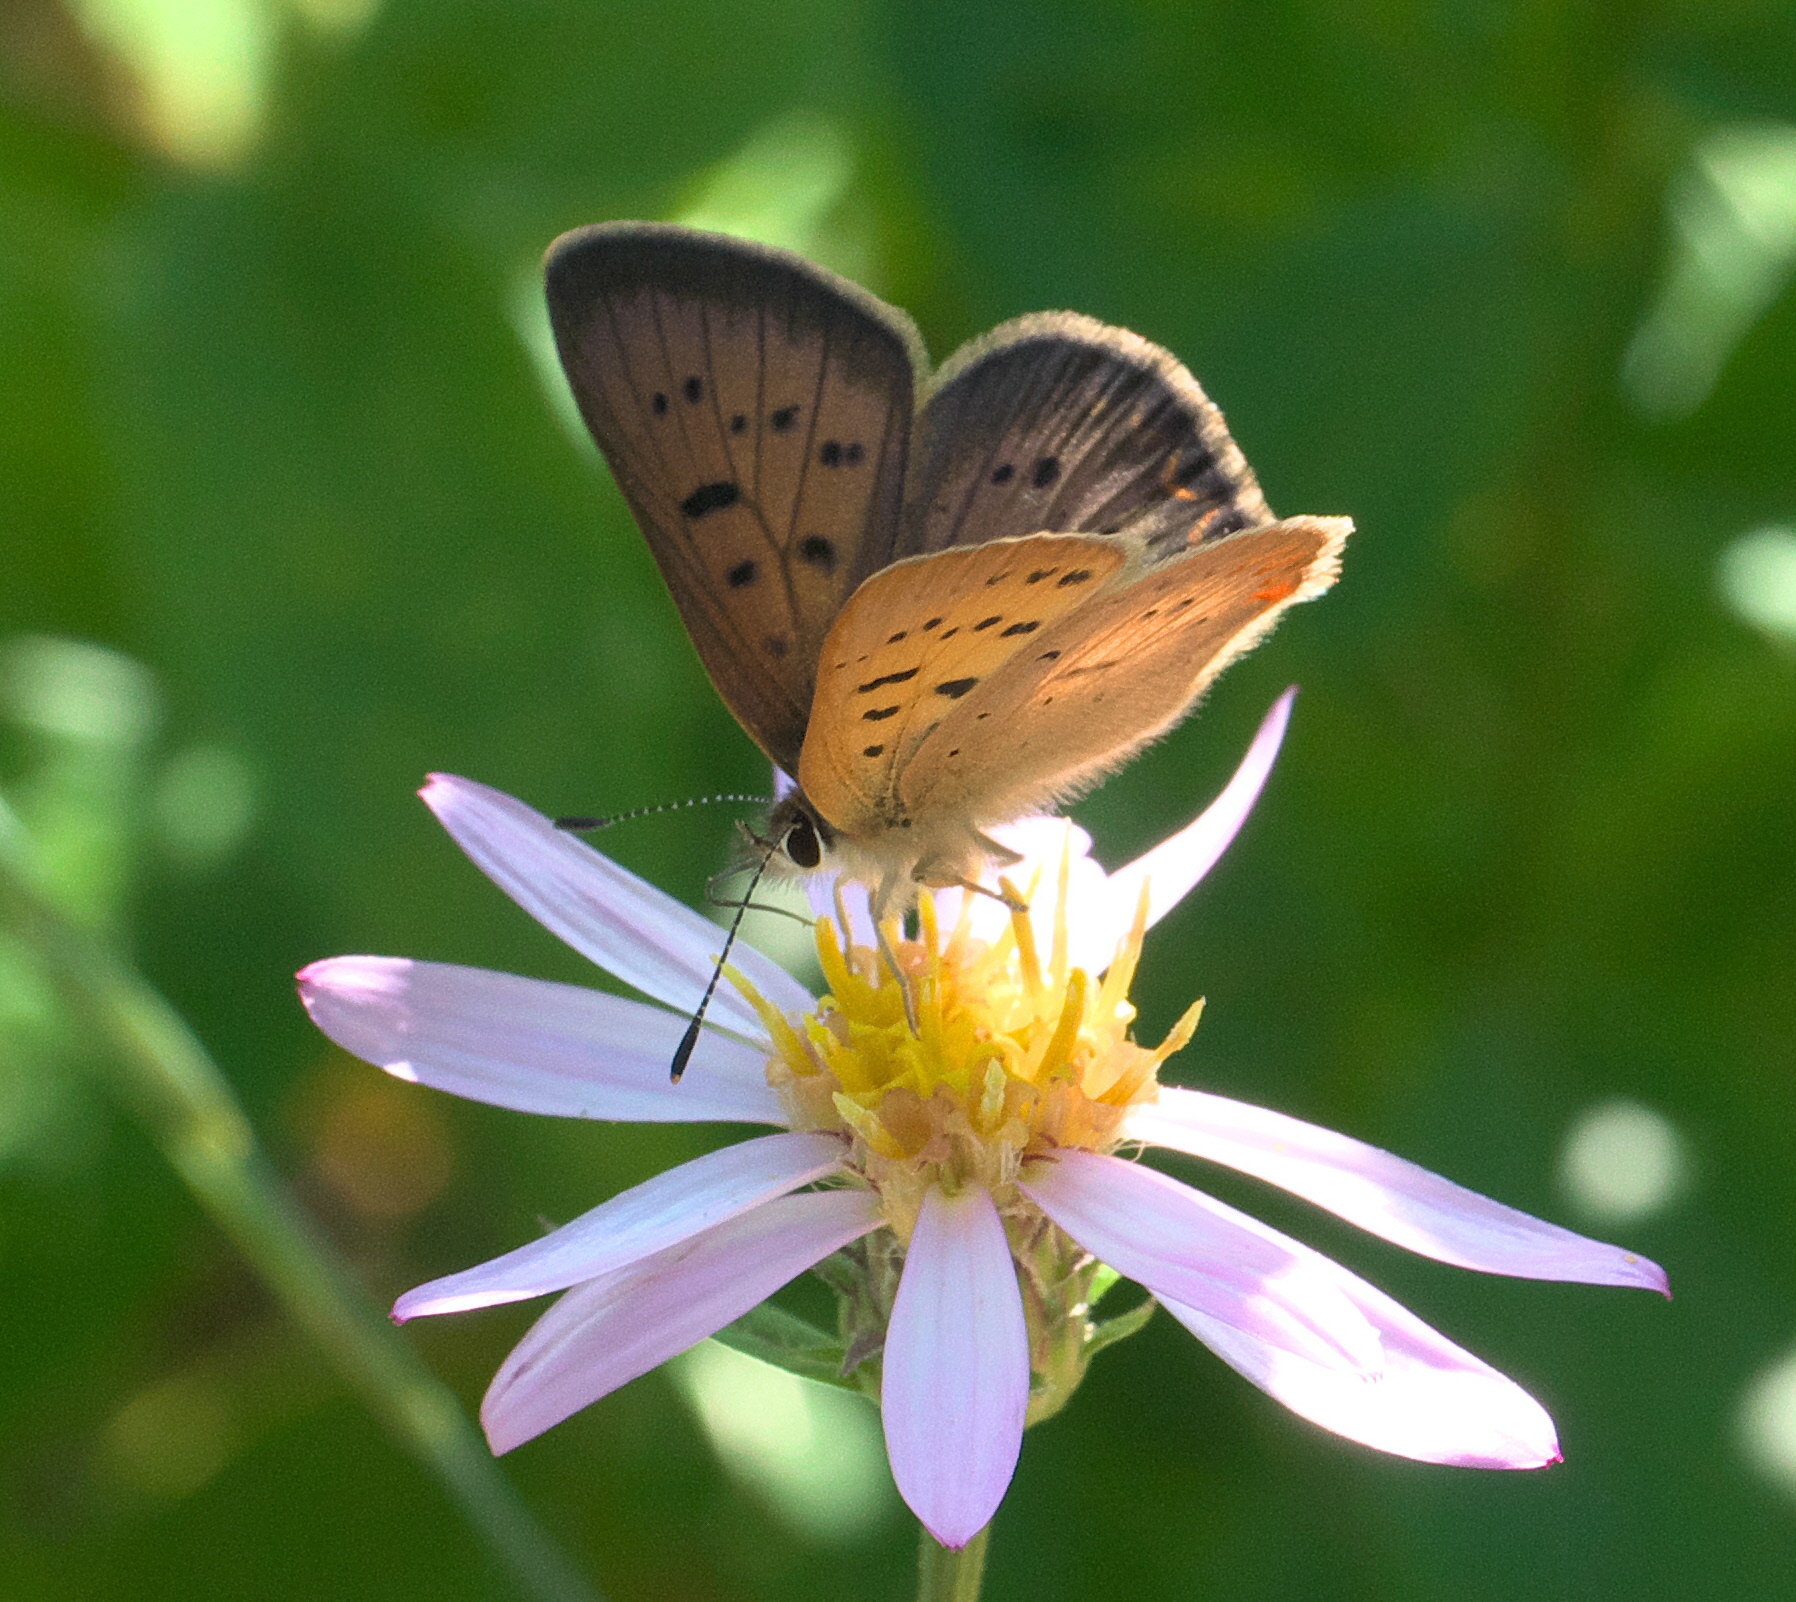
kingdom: Animalia
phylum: Arthropoda
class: Insecta
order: Lepidoptera
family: Lycaenidae
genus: Tharsalea
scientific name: Tharsalea helloides
